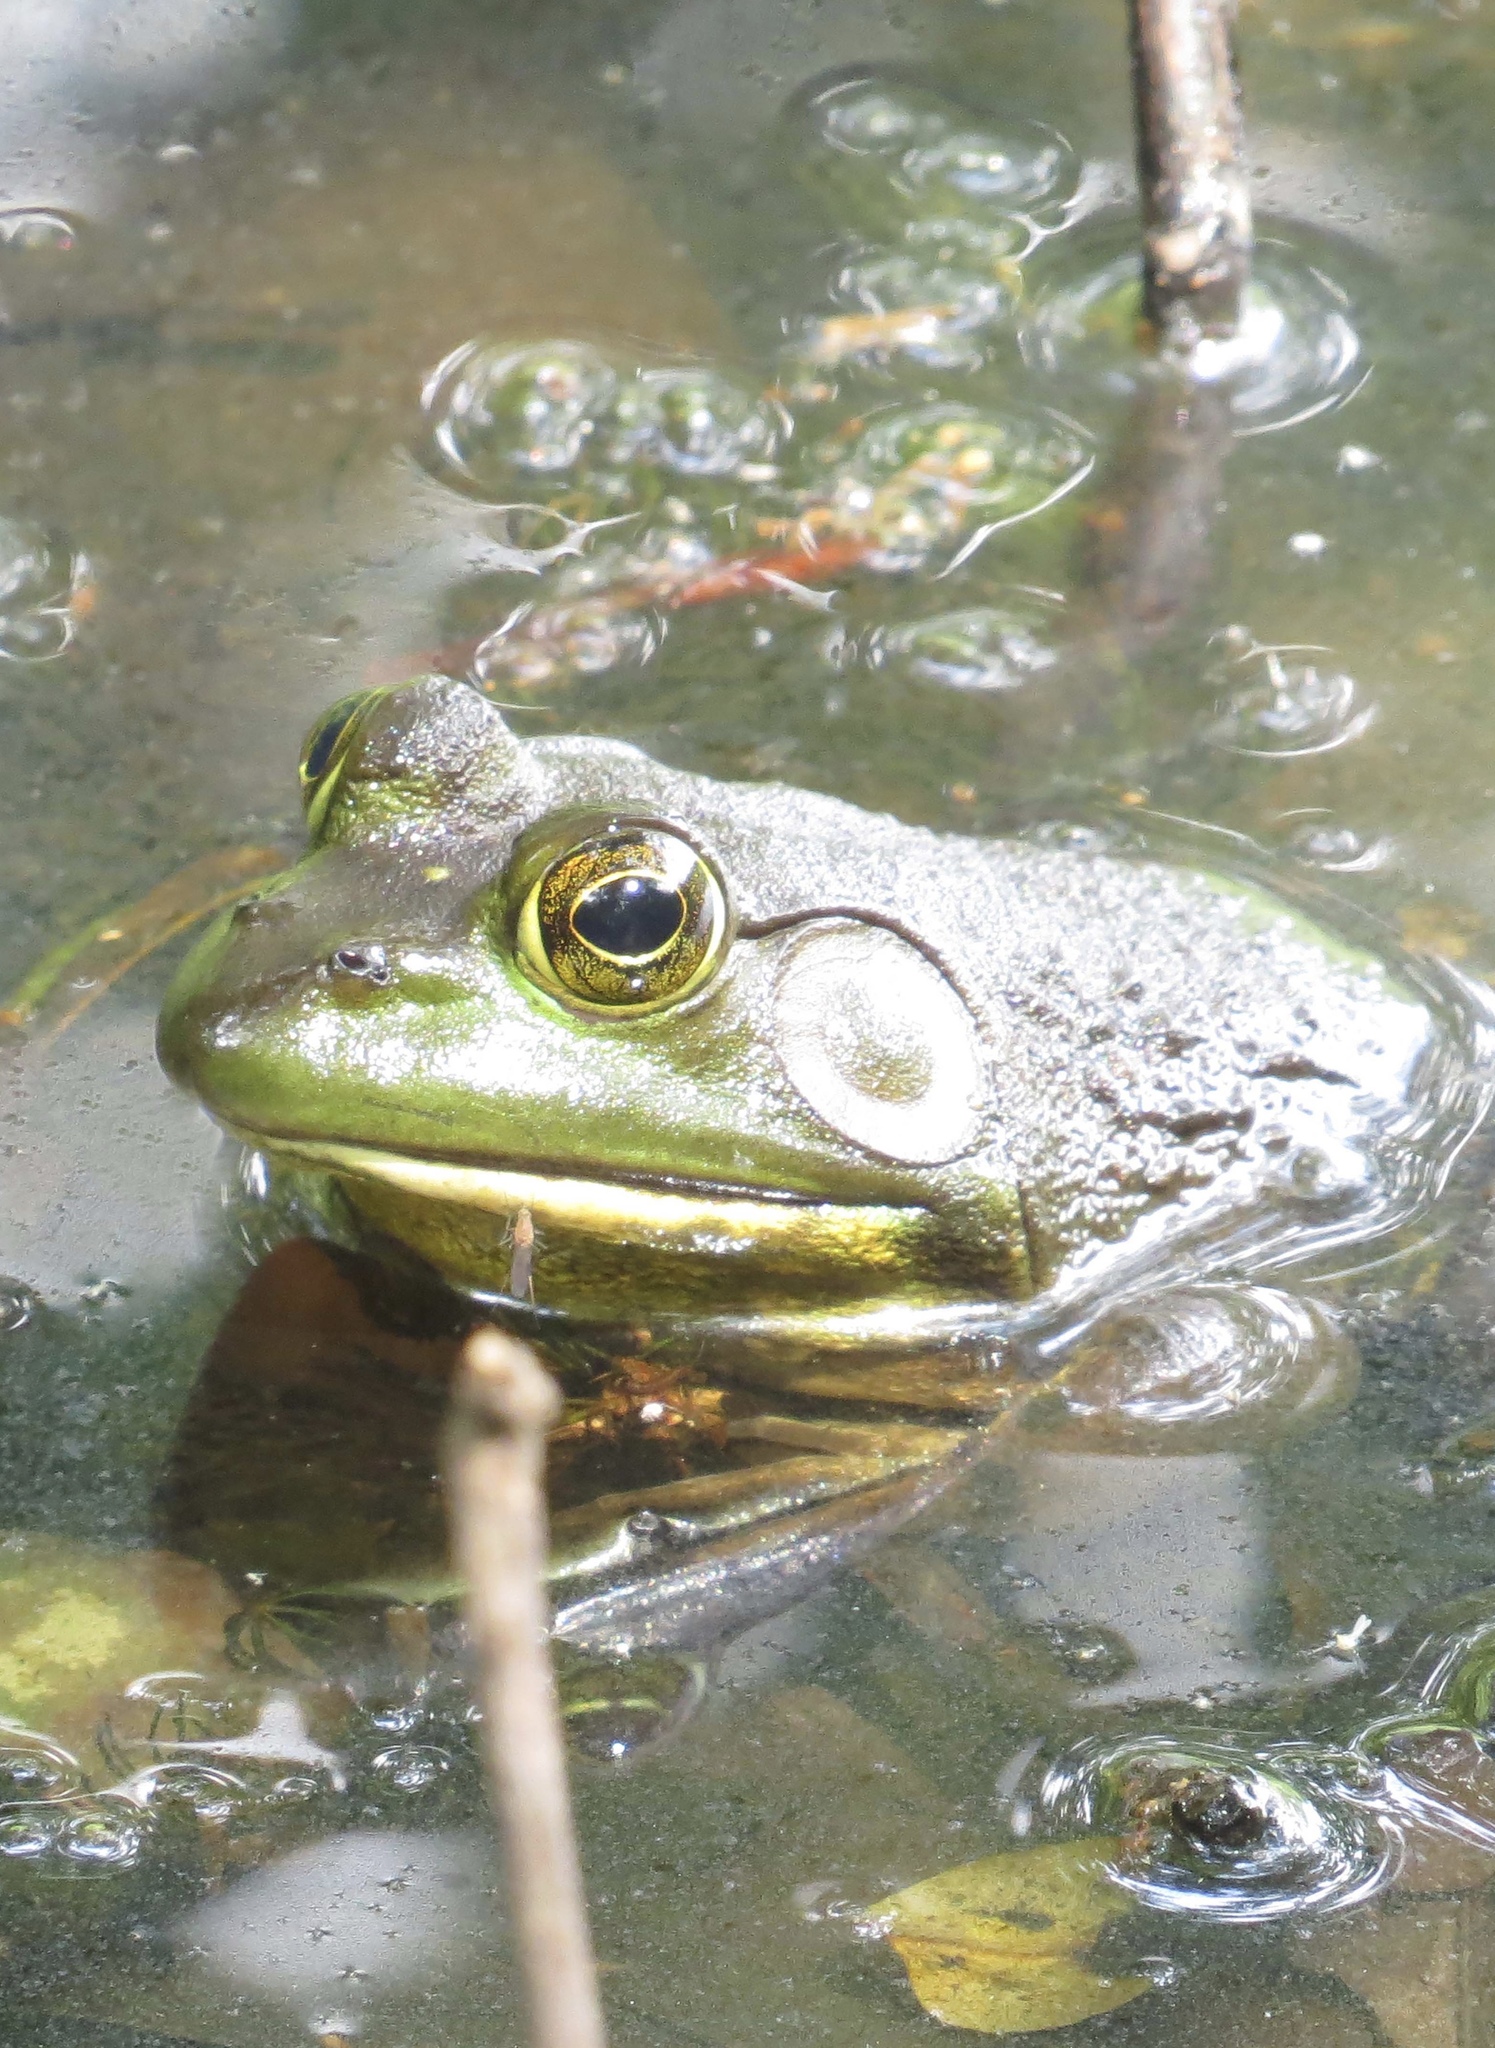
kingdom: Animalia
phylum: Chordata
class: Amphibia
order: Anura
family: Ranidae
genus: Lithobates
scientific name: Lithobates catesbeianus
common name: American bullfrog
